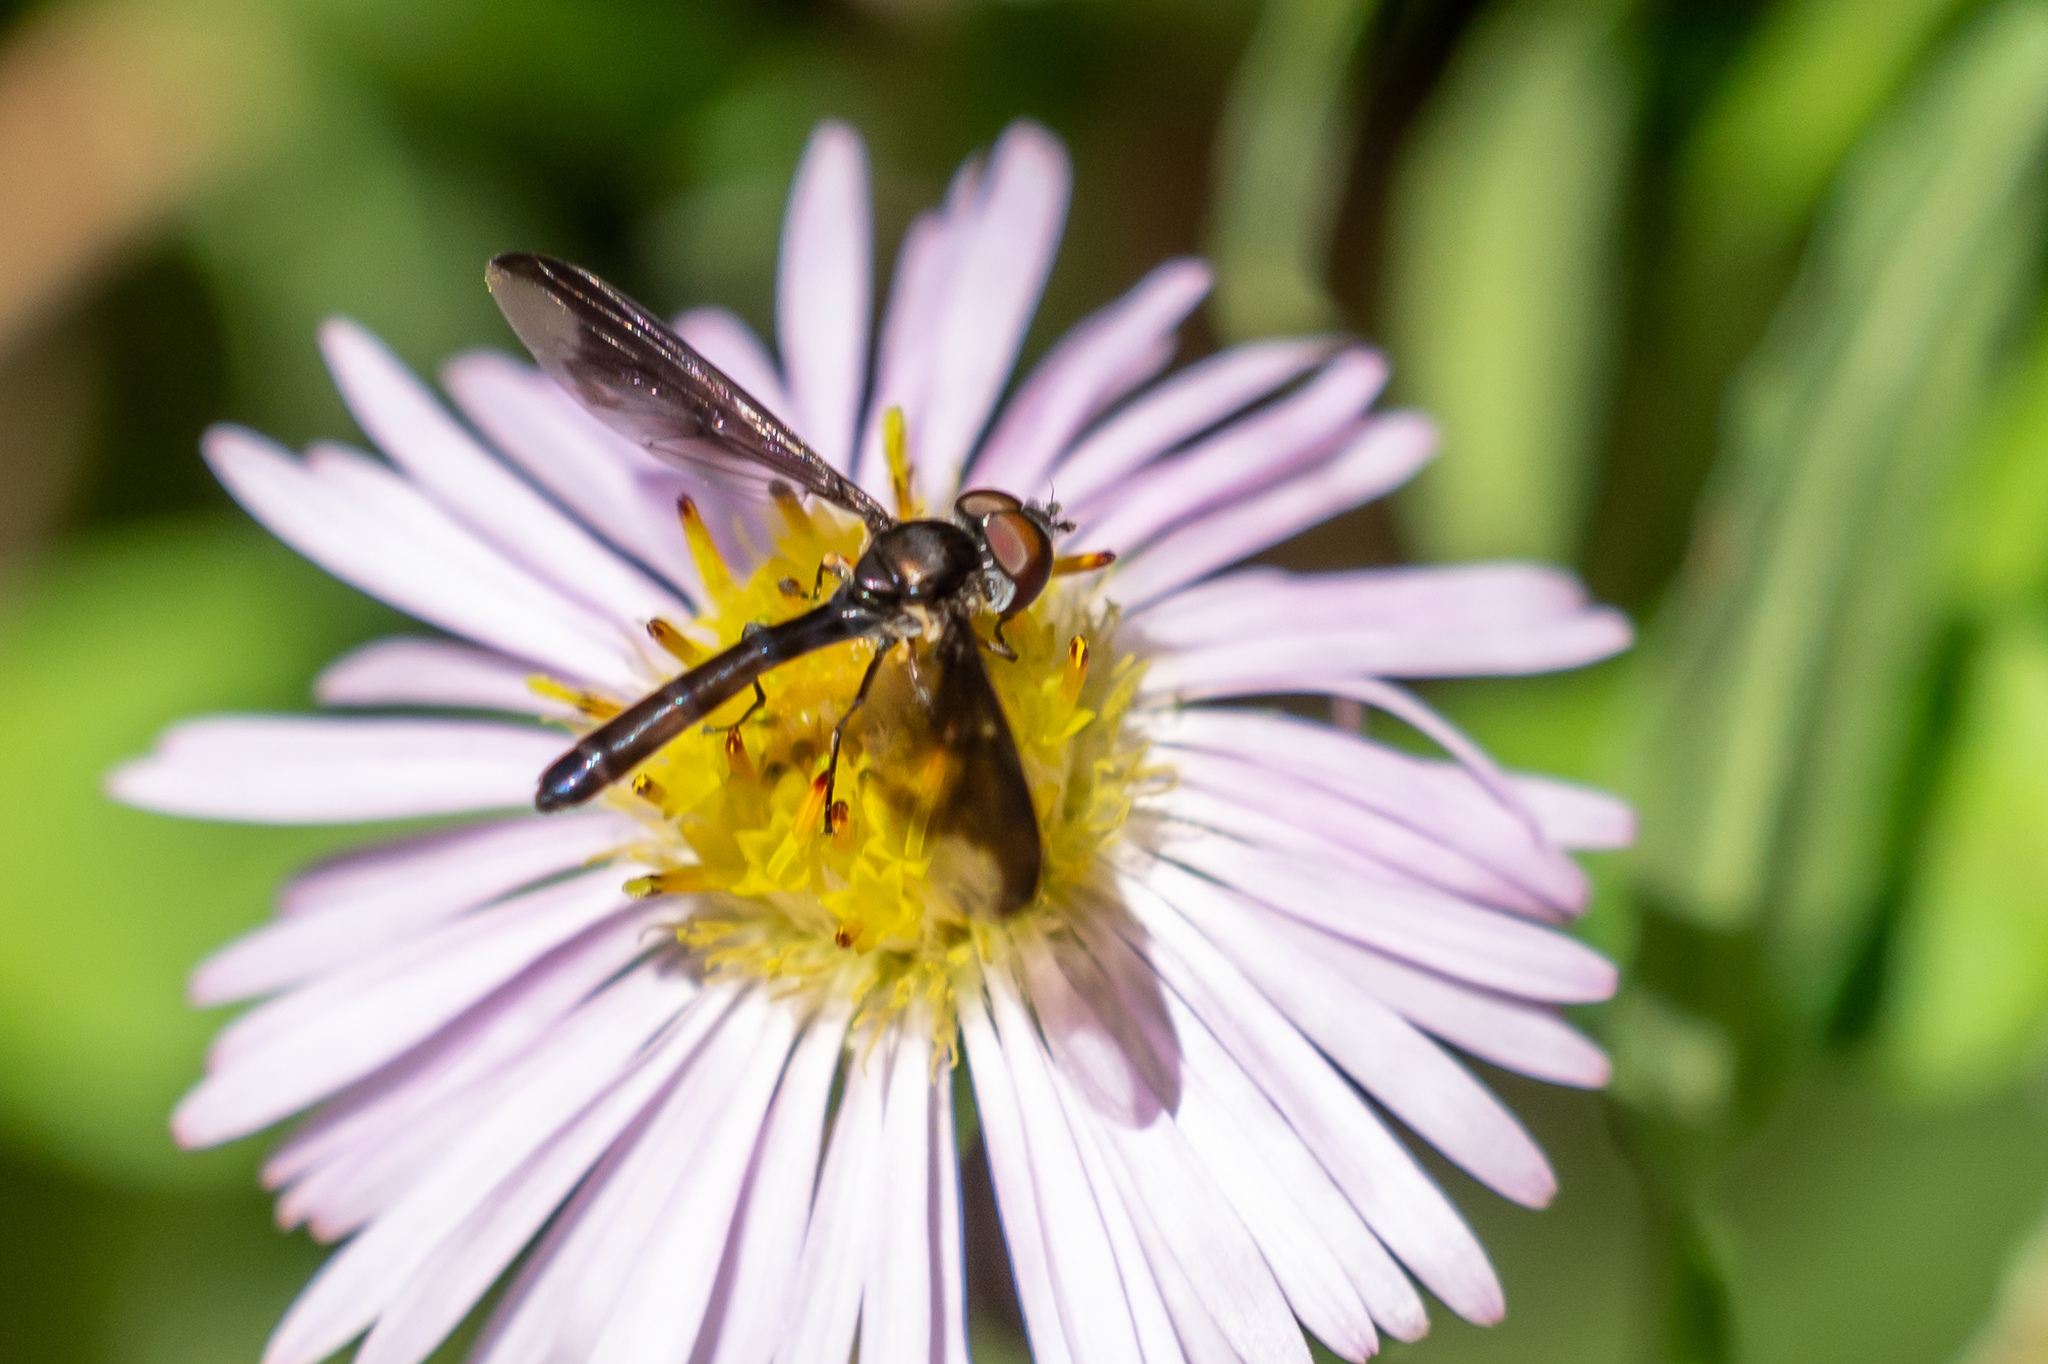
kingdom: Animalia
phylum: Arthropoda
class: Insecta
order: Diptera
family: Syrphidae
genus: Ocyptamus
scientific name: Ocyptamus fuscipennis
